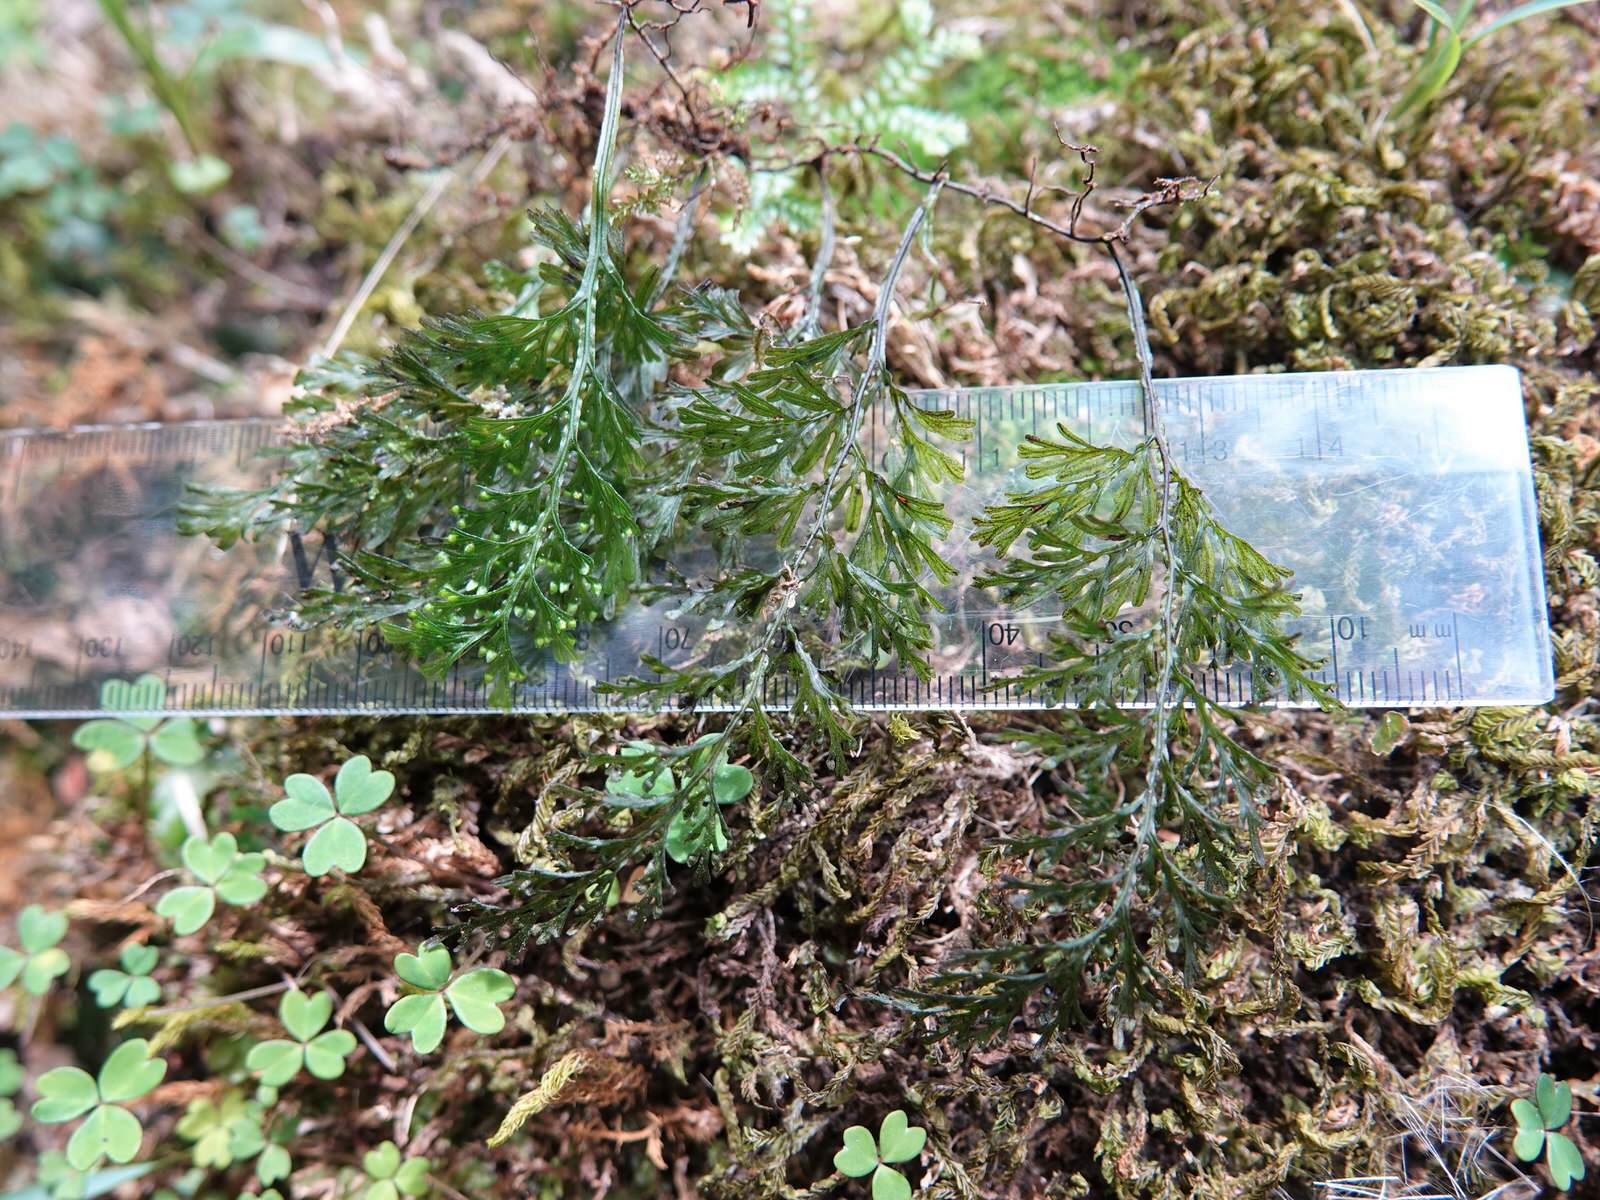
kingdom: Plantae
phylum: Tracheophyta
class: Polypodiopsida
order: Hymenophyllales
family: Hymenophyllaceae
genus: Hymenophyllum
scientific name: Hymenophyllum australe
